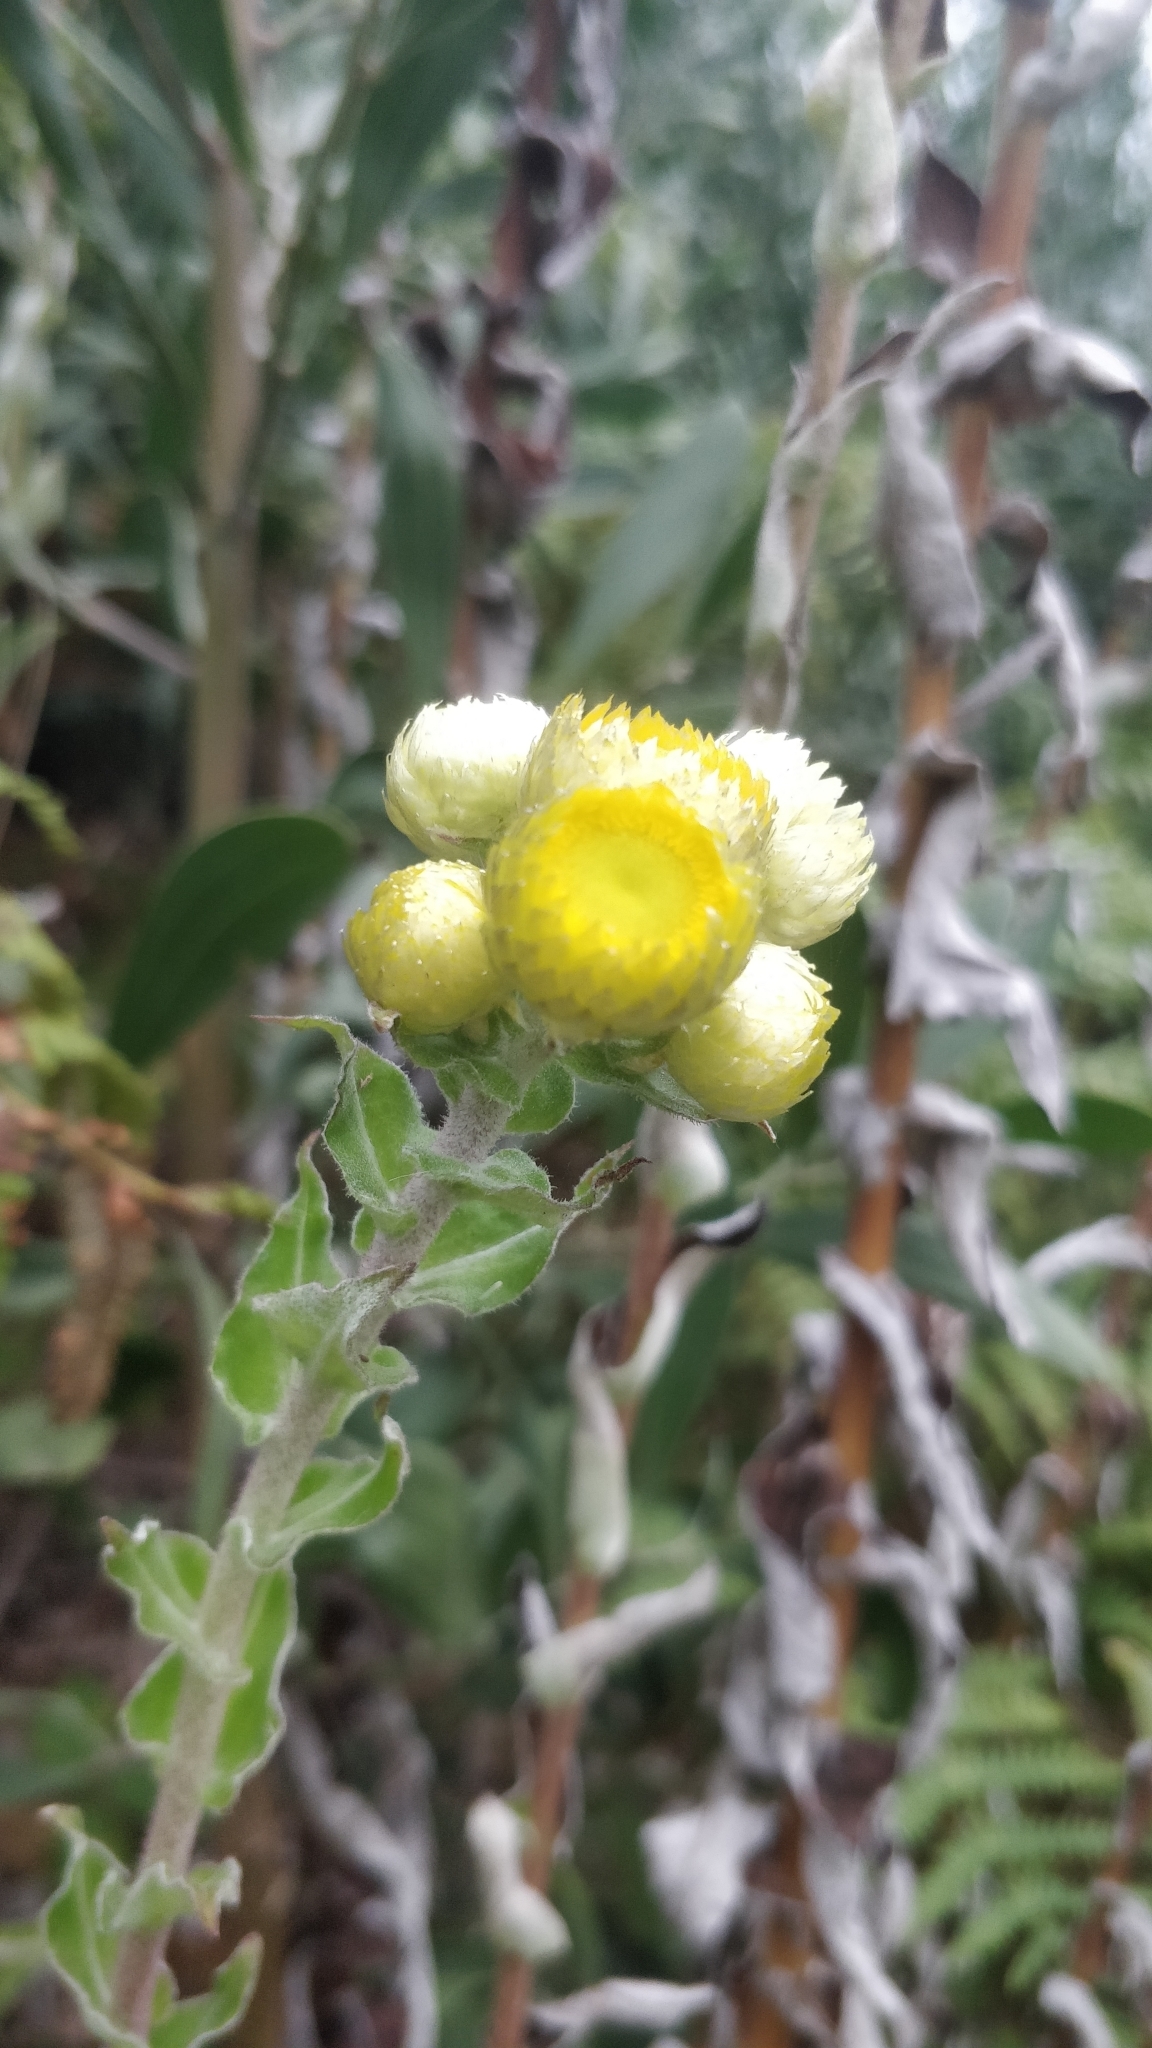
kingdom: Plantae
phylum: Tracheophyta
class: Magnoliopsida
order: Asterales
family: Asteraceae
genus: Helichrysum
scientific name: Helichrysum foetidum
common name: Stinking everlasting
